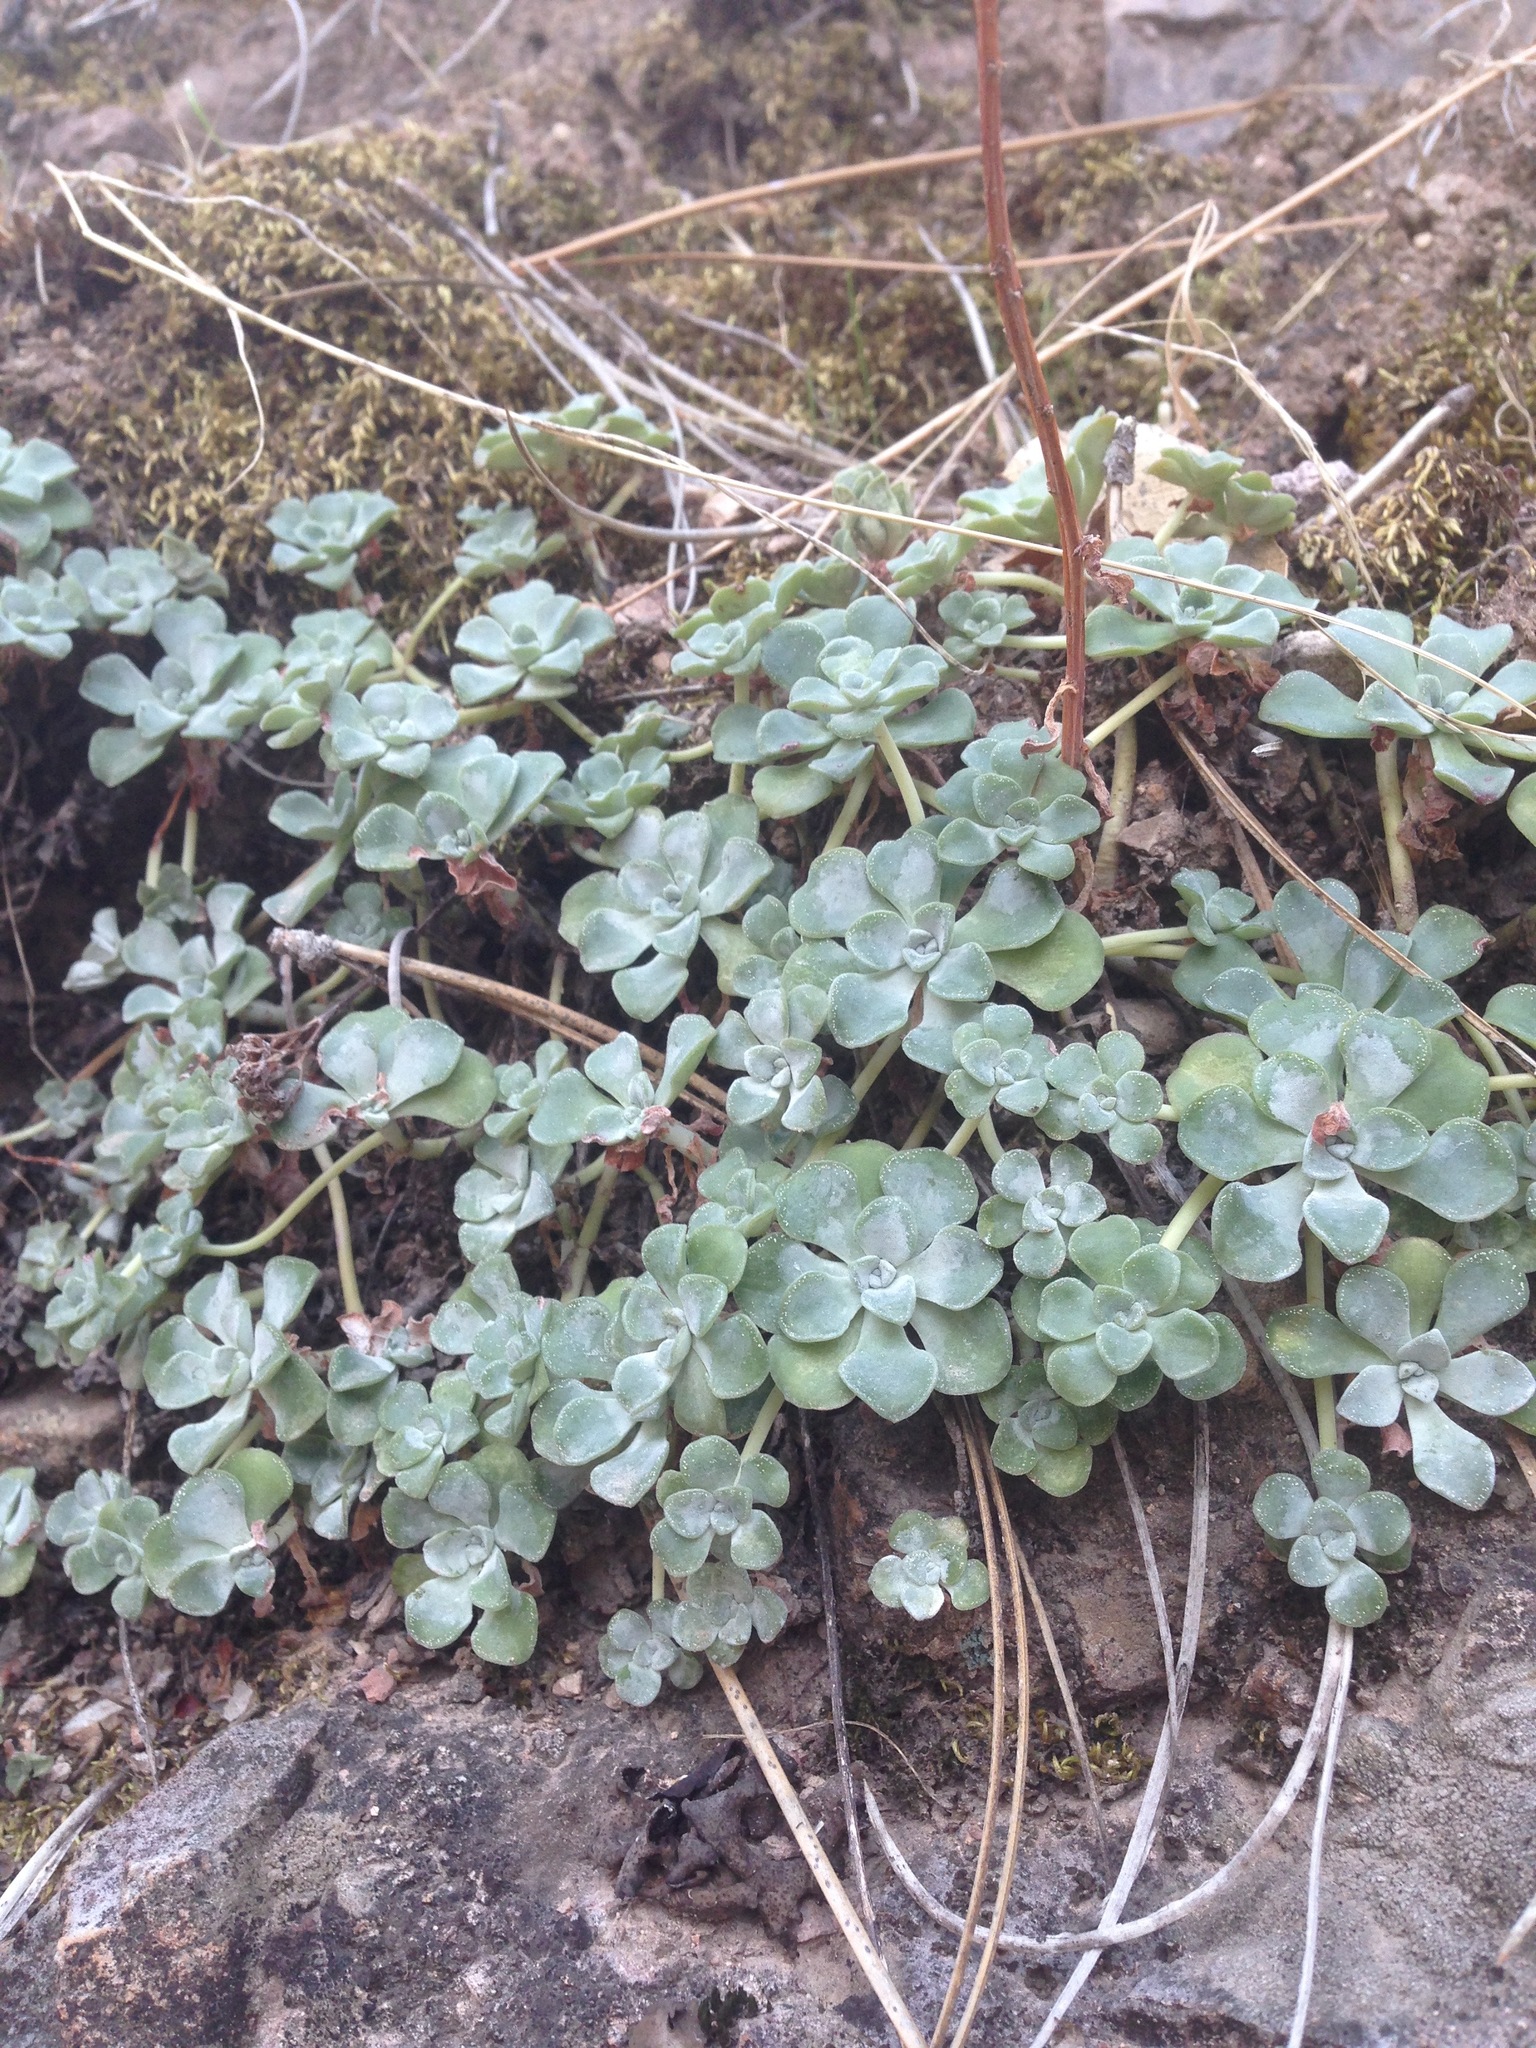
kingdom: Plantae
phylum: Tracheophyta
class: Magnoliopsida
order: Saxifragales
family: Crassulaceae
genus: Sedum
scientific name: Sedum spathulifolium
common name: Colorado stonecrop
